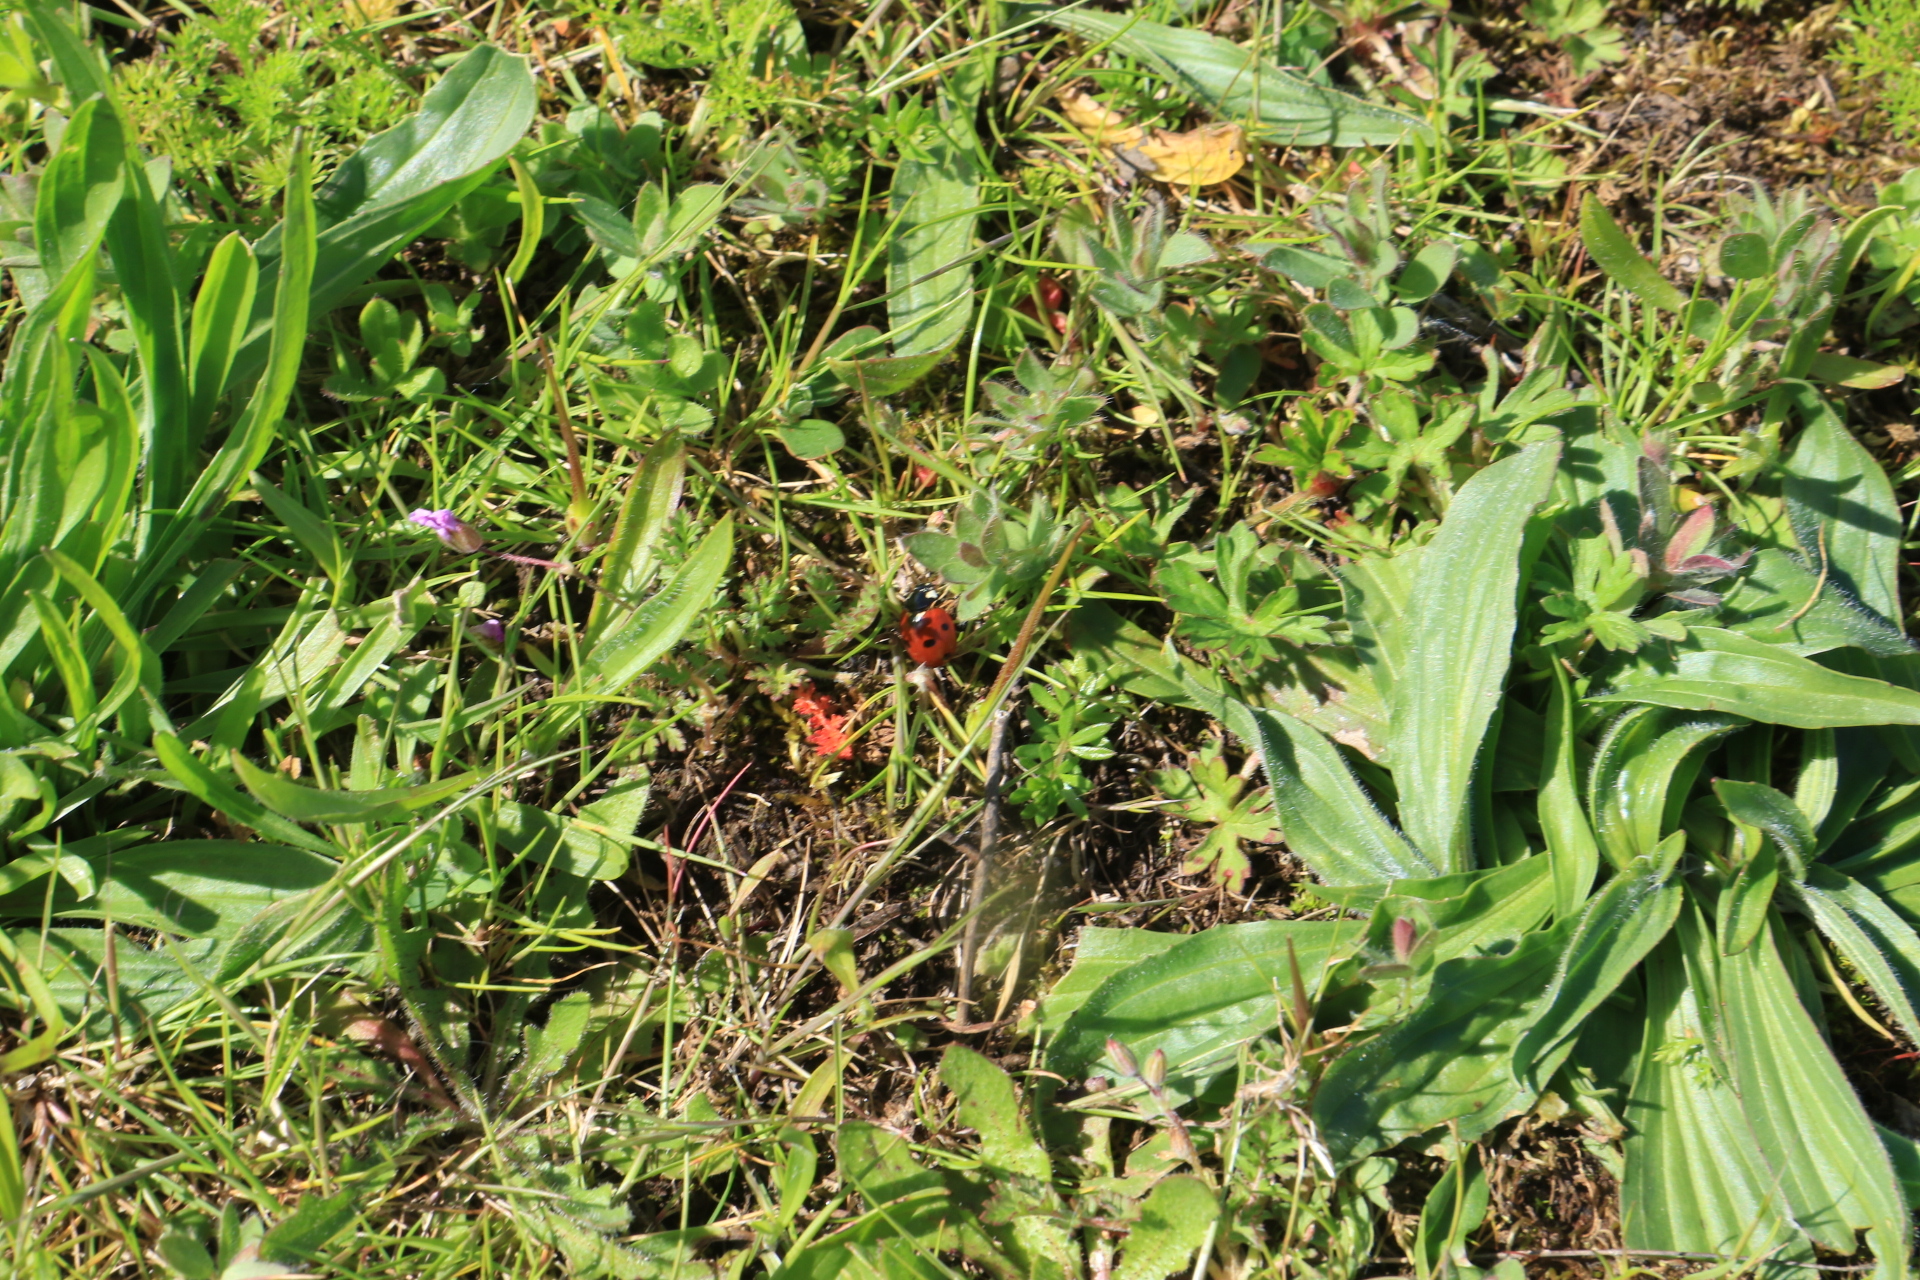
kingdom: Animalia
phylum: Arthropoda
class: Insecta
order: Coleoptera
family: Coccinellidae
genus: Coccinella
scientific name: Coccinella septempunctata
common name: Sevenspotted lady beetle
